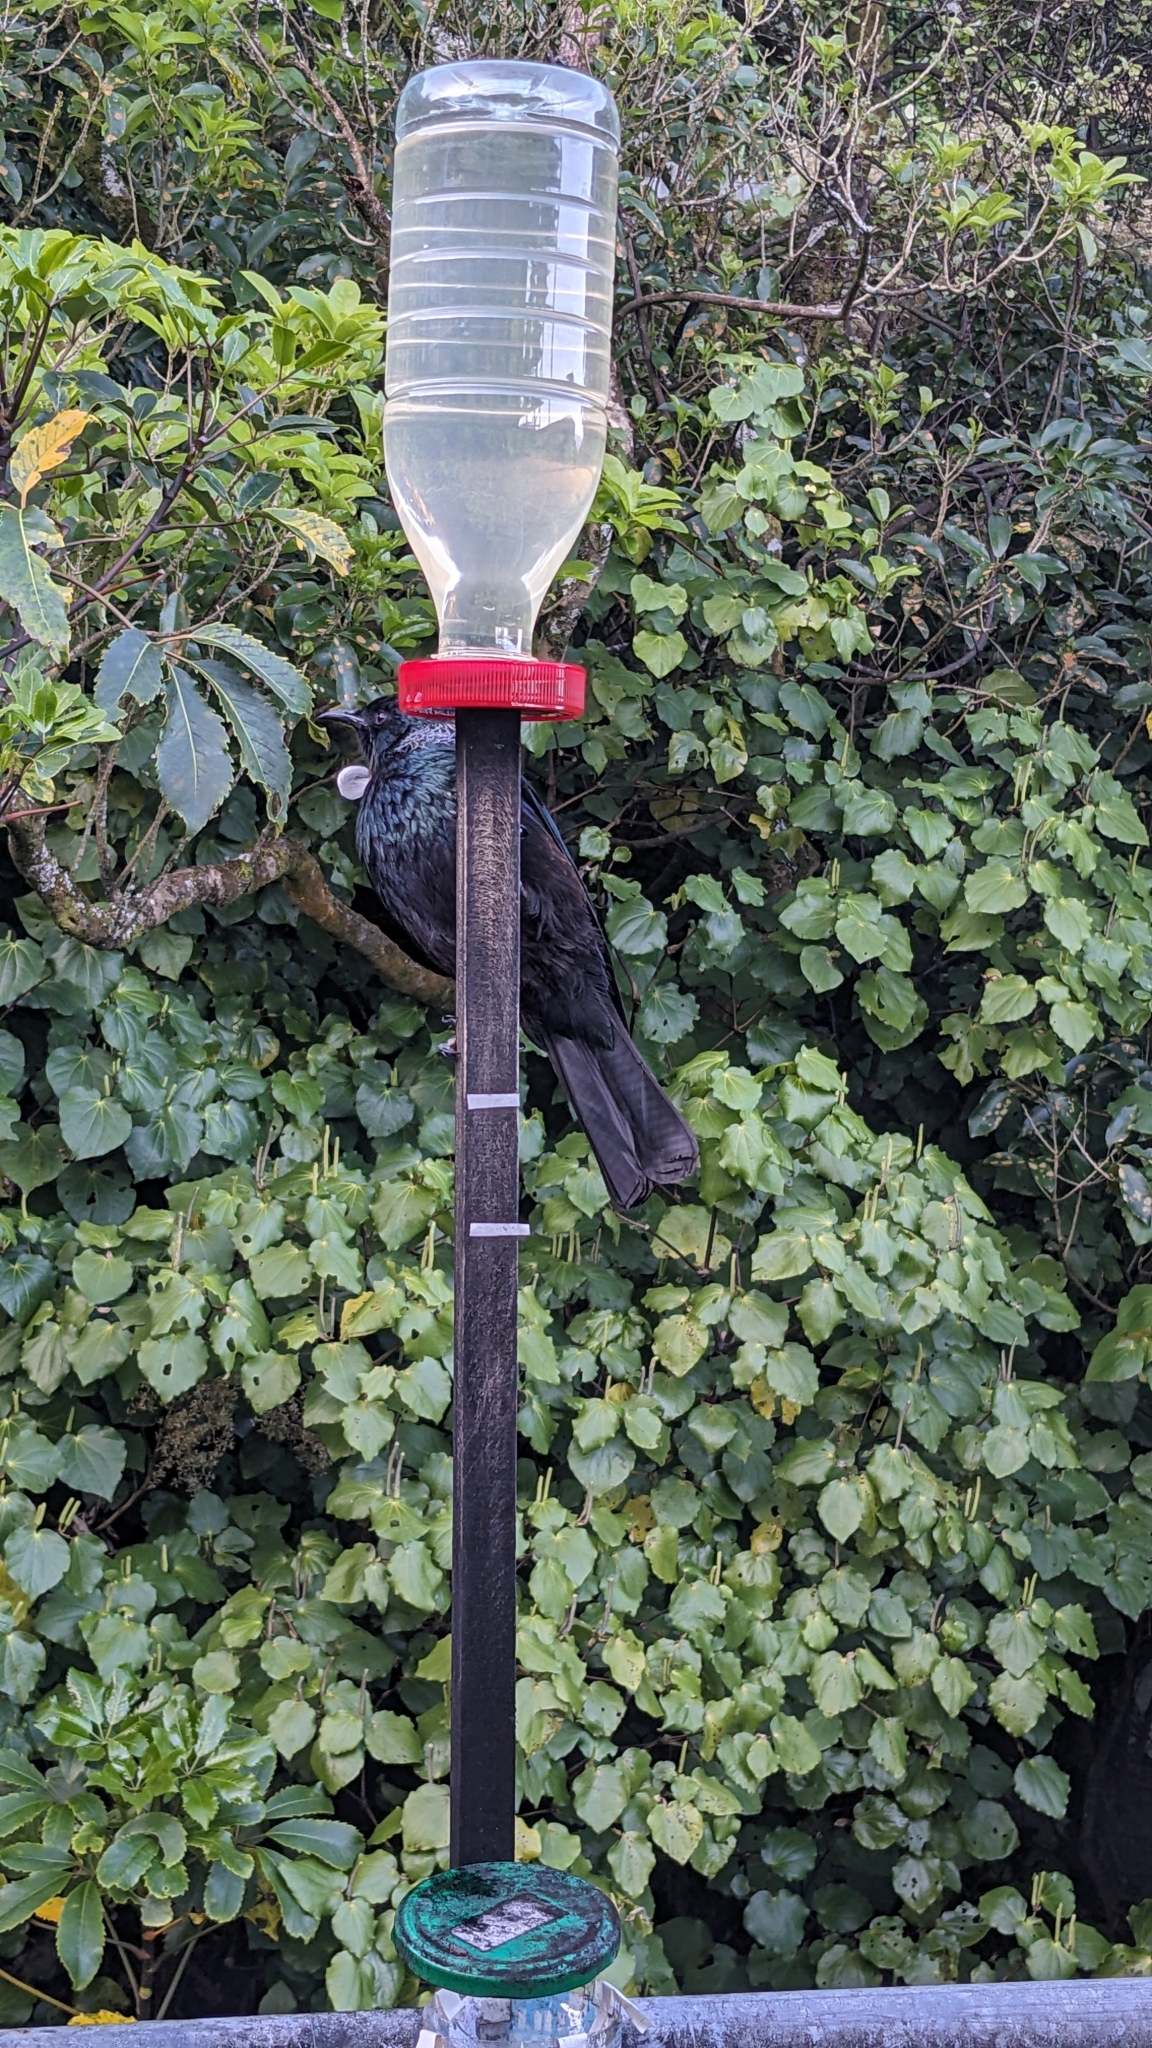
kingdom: Animalia
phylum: Chordata
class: Aves
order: Passeriformes
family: Meliphagidae
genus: Prosthemadera
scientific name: Prosthemadera novaeseelandiae
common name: Tui
